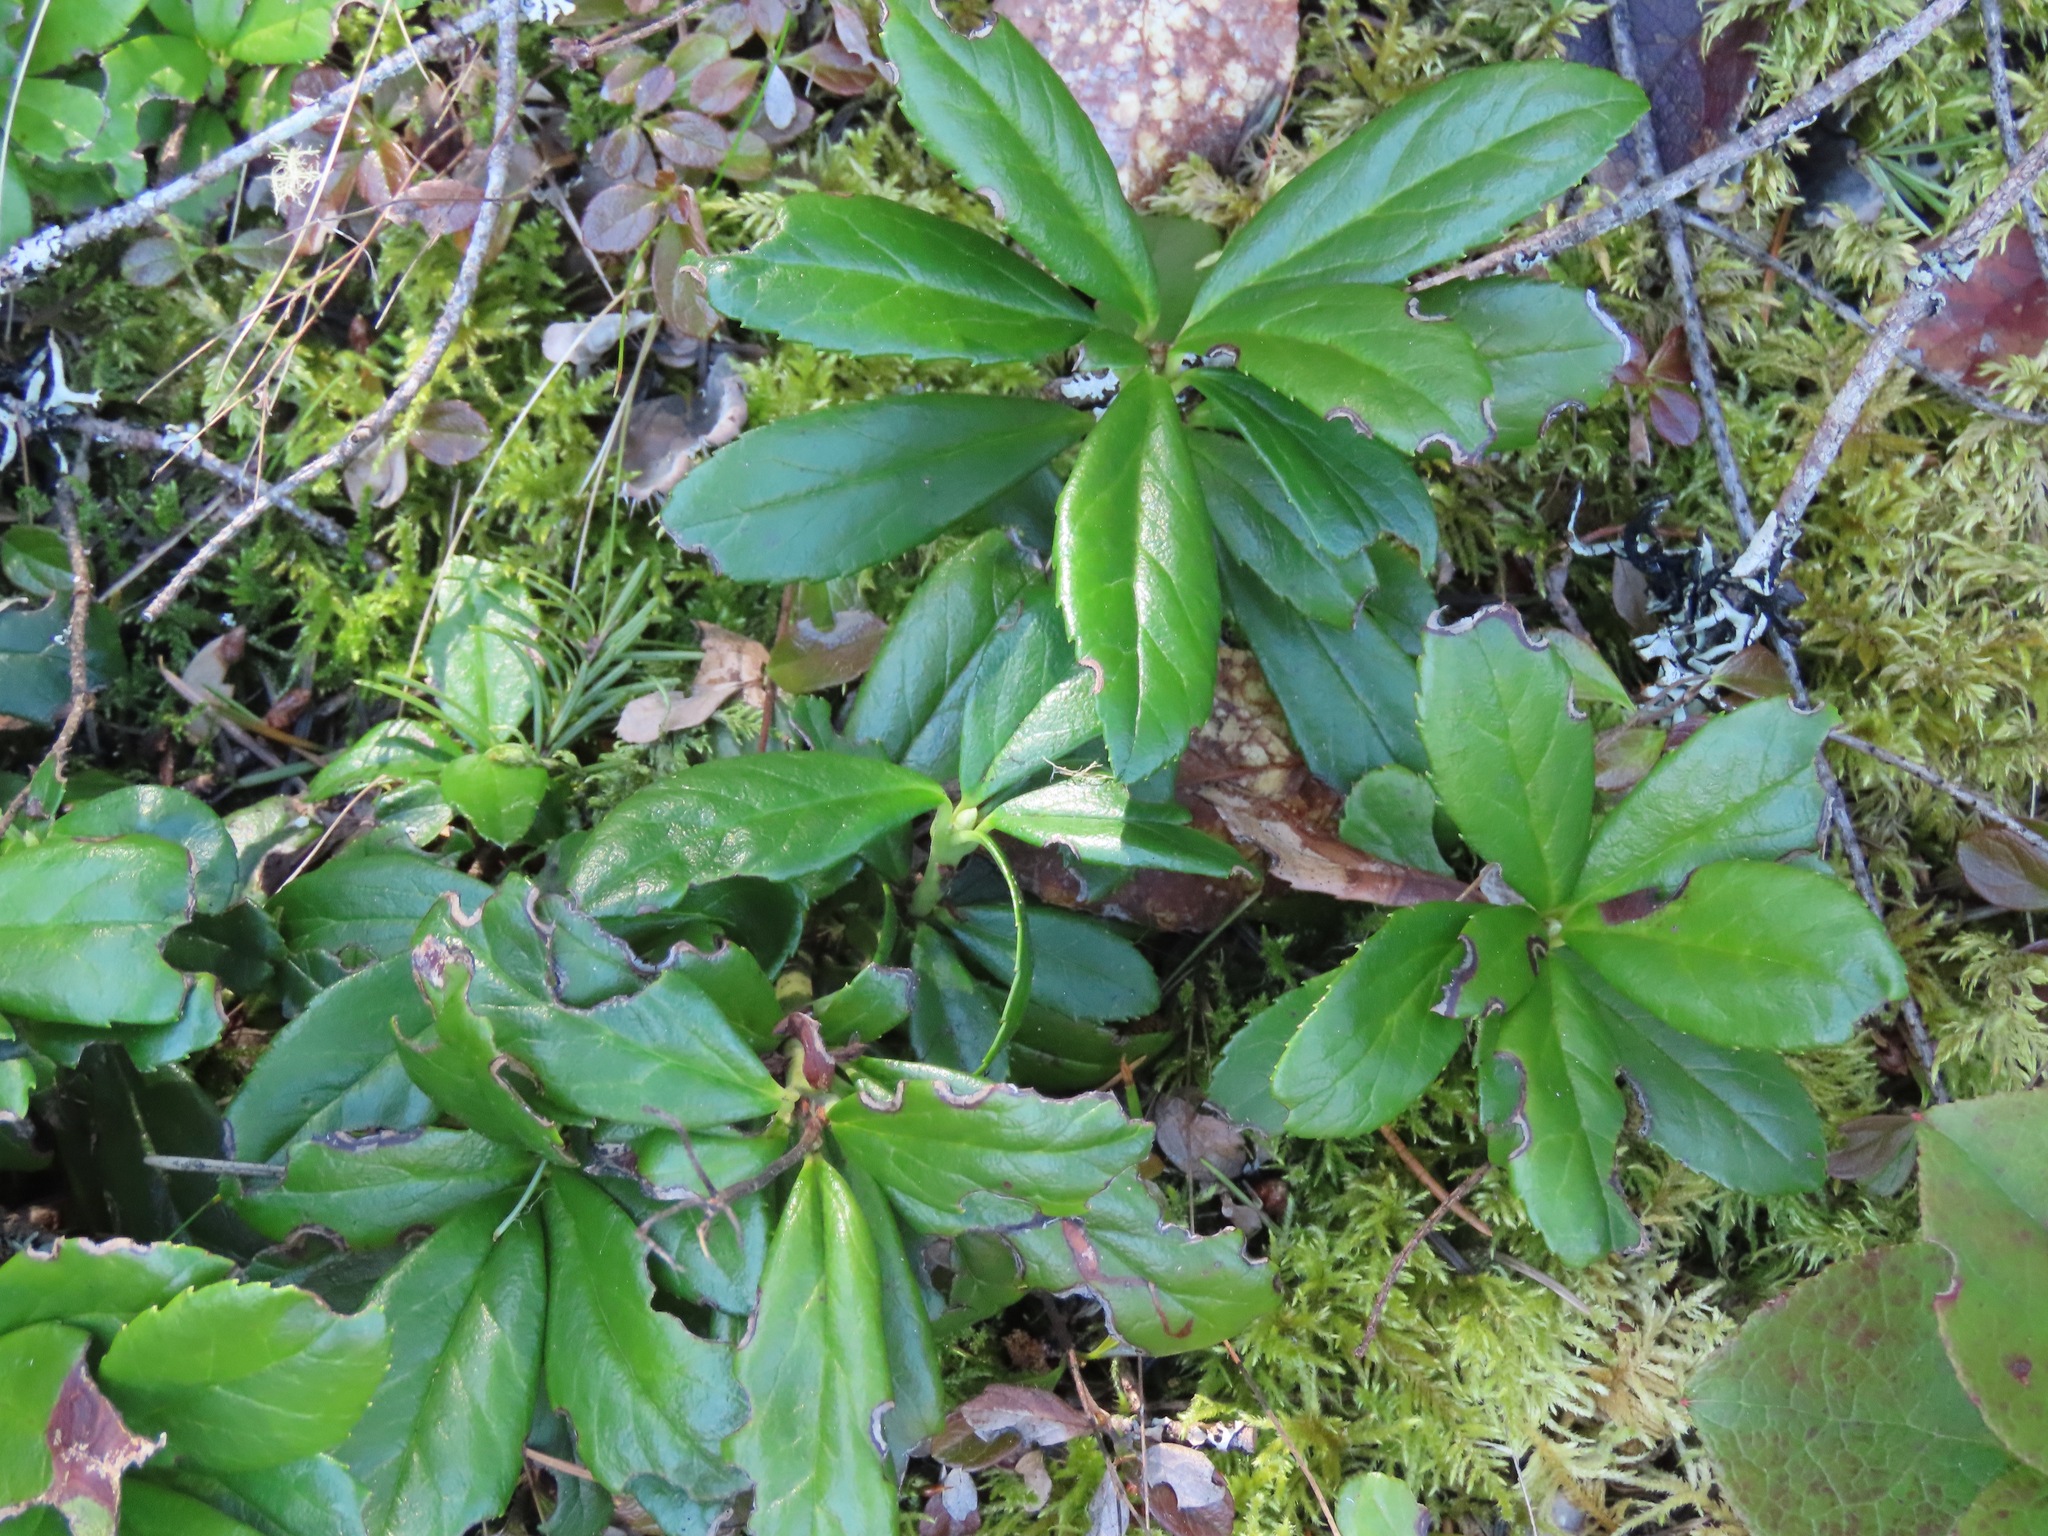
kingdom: Plantae
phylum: Tracheophyta
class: Magnoliopsida
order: Ericales
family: Ericaceae
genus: Chimaphila
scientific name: Chimaphila umbellata
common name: Pipsissewa
